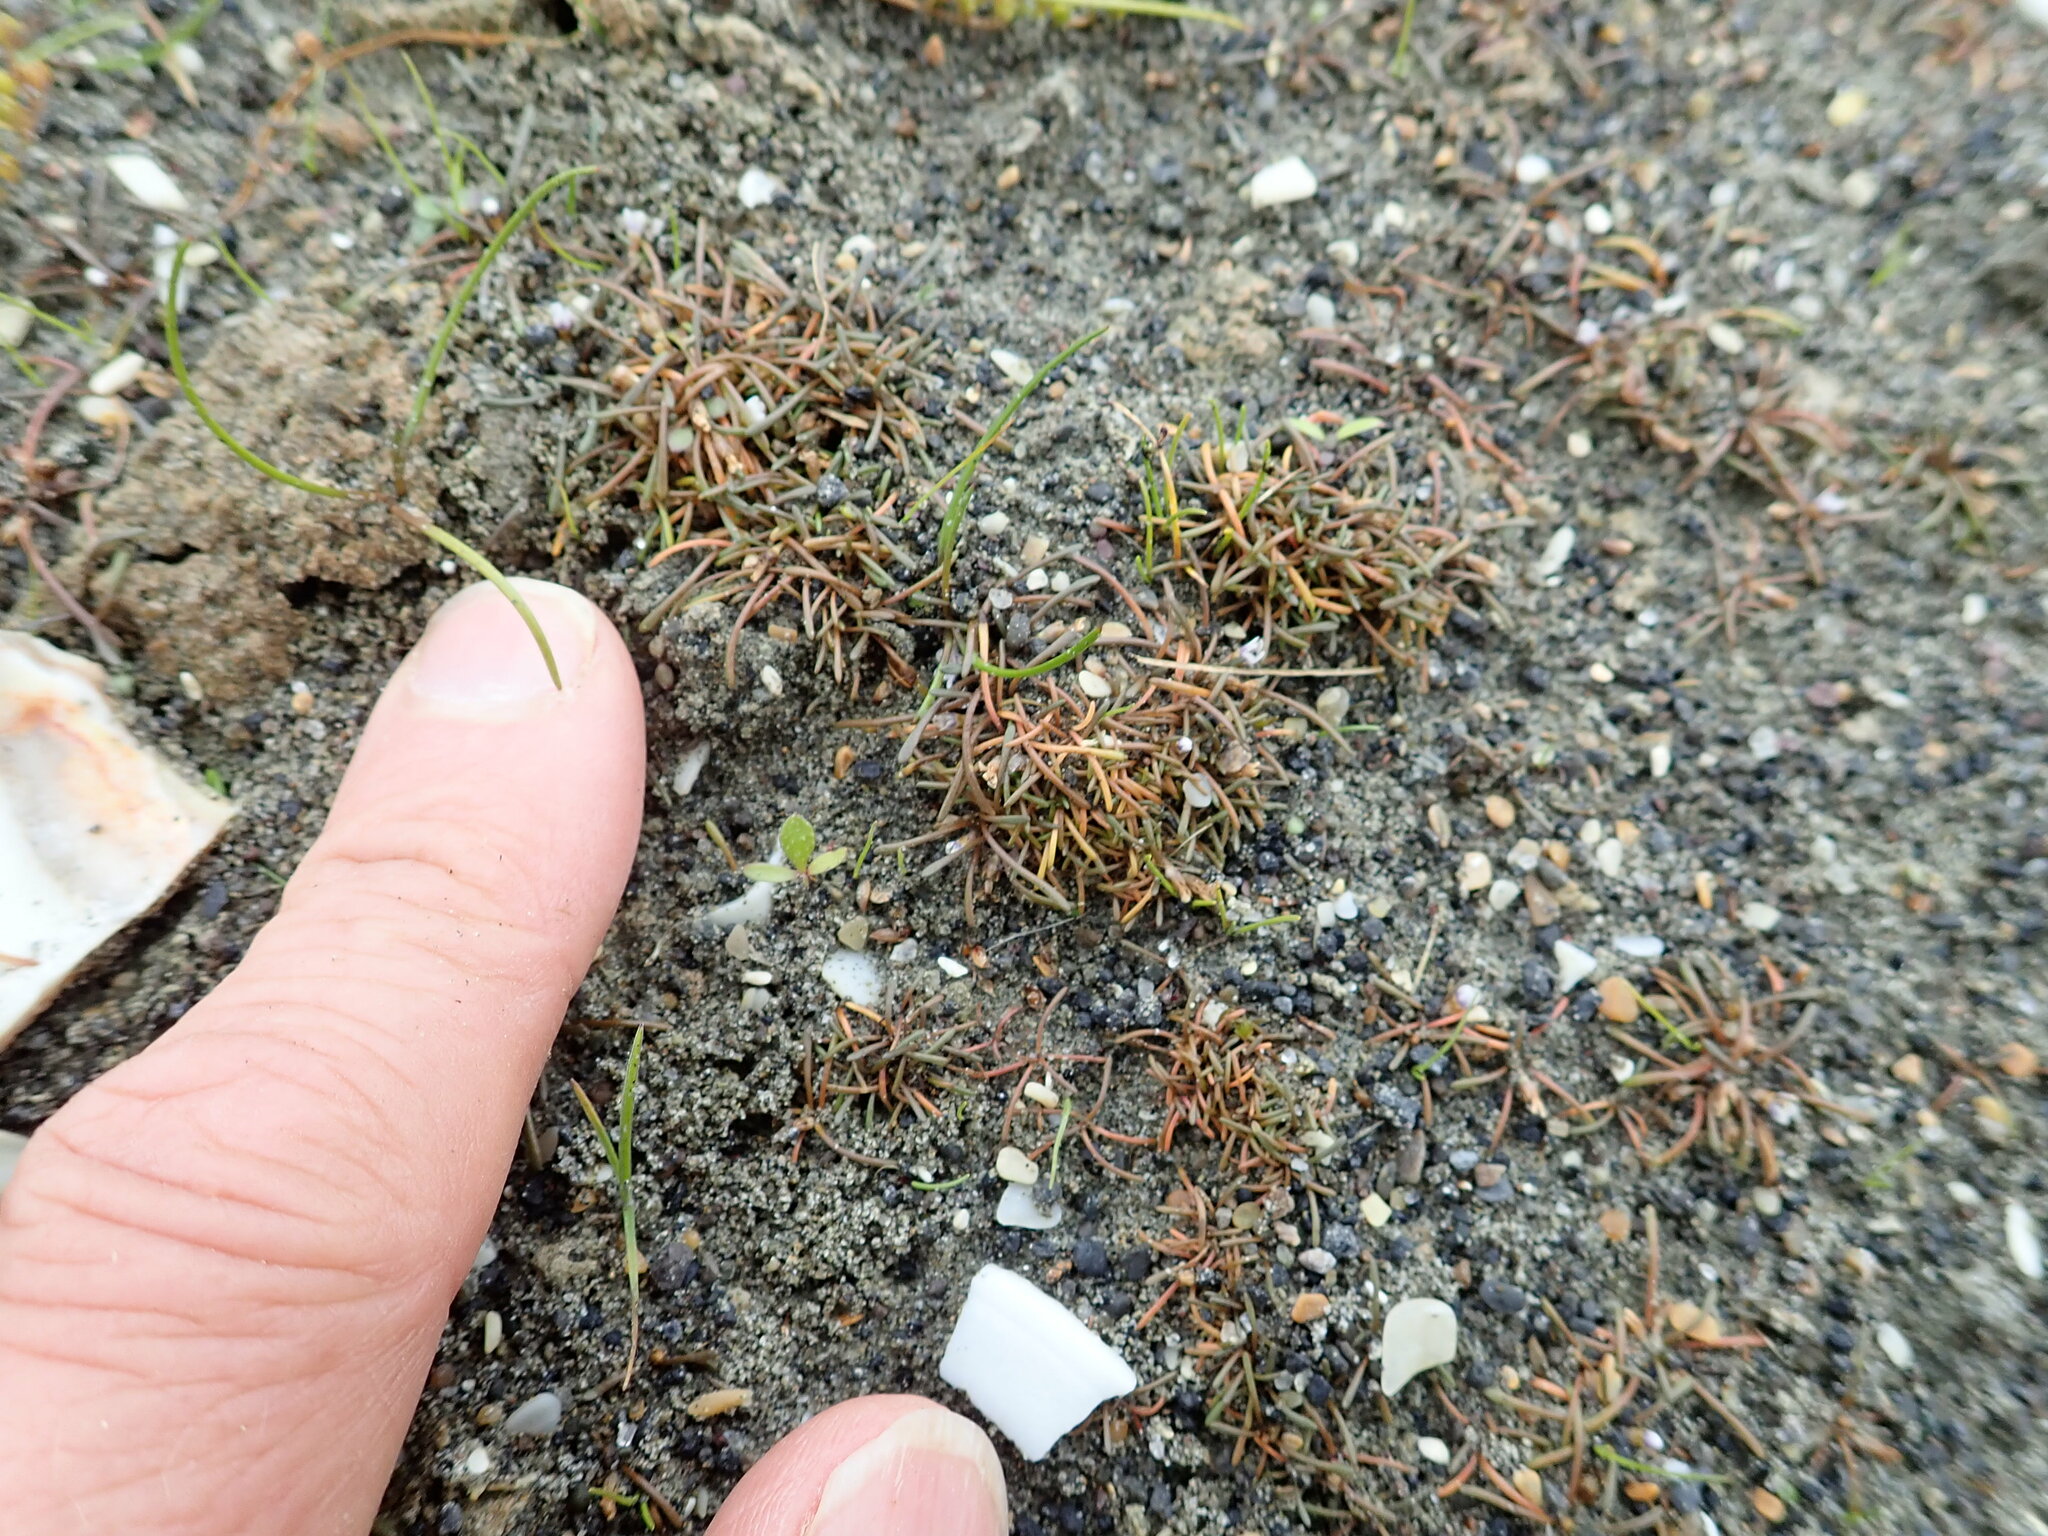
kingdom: Plantae
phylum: Tracheophyta
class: Magnoliopsida
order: Lamiales
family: Scrophulariaceae
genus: Limosella
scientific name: Limosella australis
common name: Welsh mudwort
